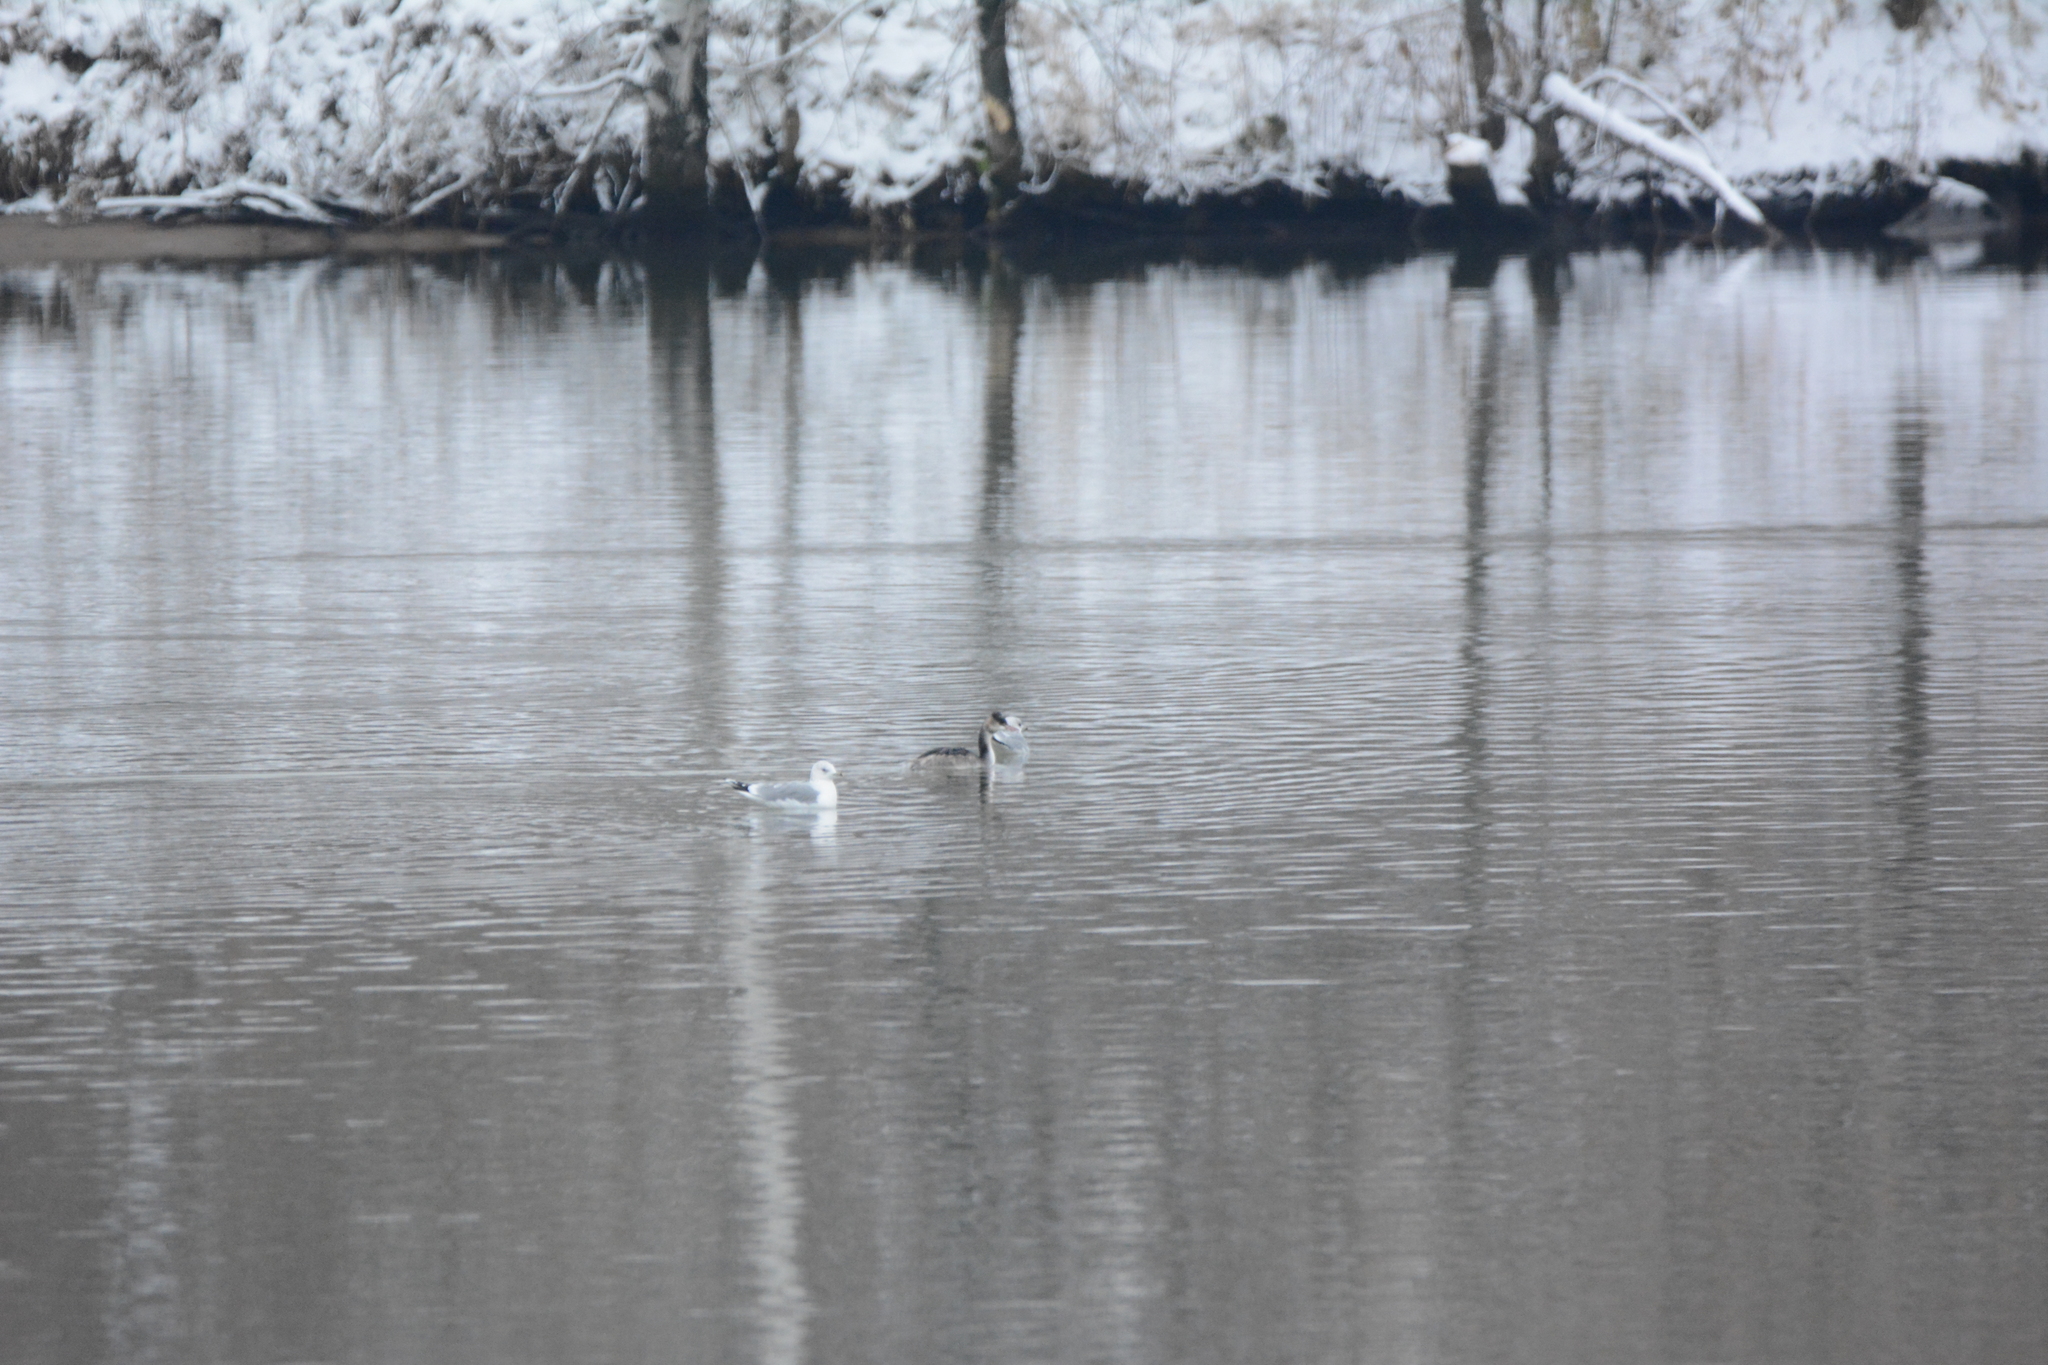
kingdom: Animalia
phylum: Chordata
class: Aves
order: Podicipediformes
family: Podicipedidae
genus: Podiceps
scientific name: Podiceps cristatus
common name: Great crested grebe
